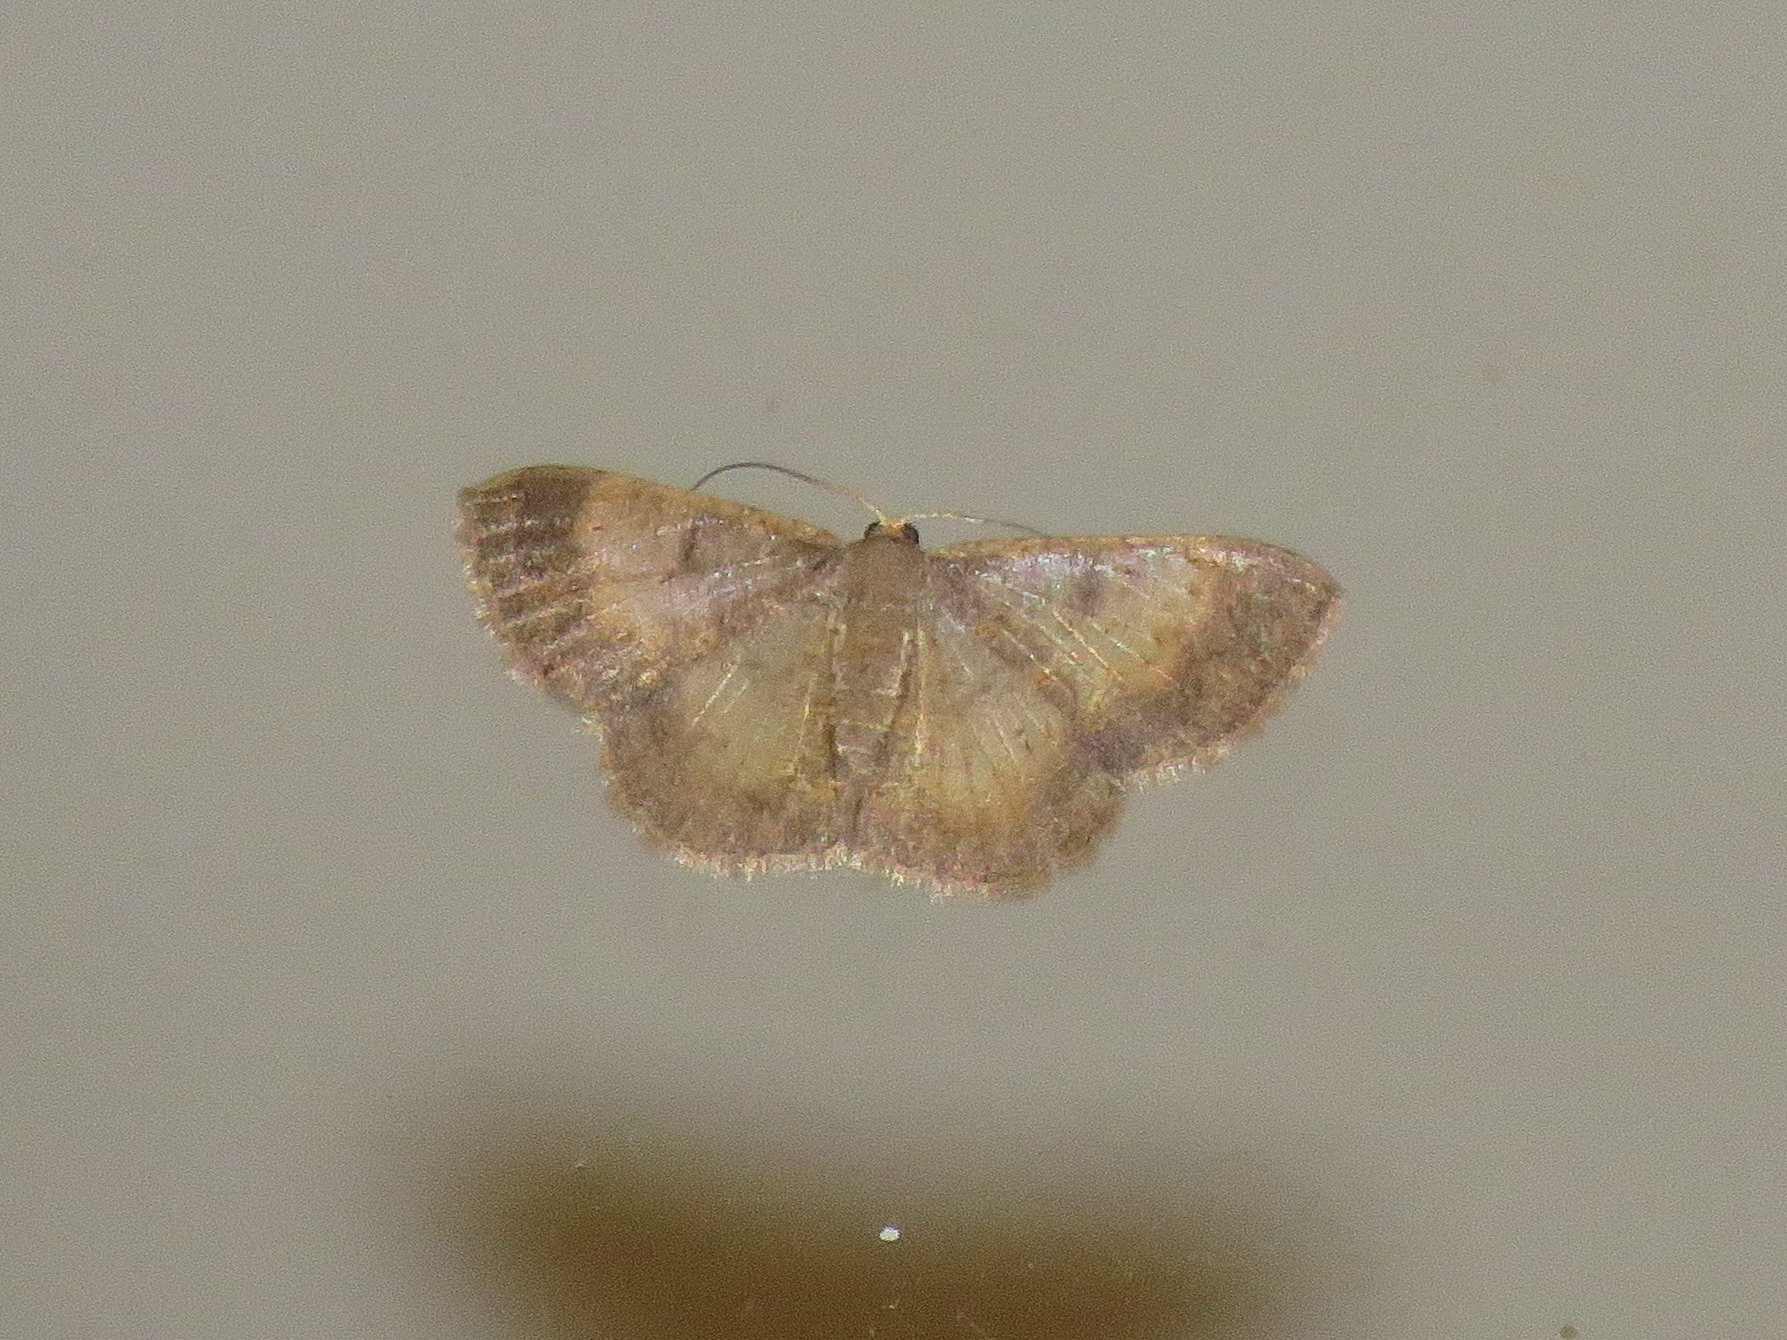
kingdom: Animalia
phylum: Arthropoda
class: Insecta
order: Lepidoptera
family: Geometridae
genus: Peratophyga
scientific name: Peratophyga crista
